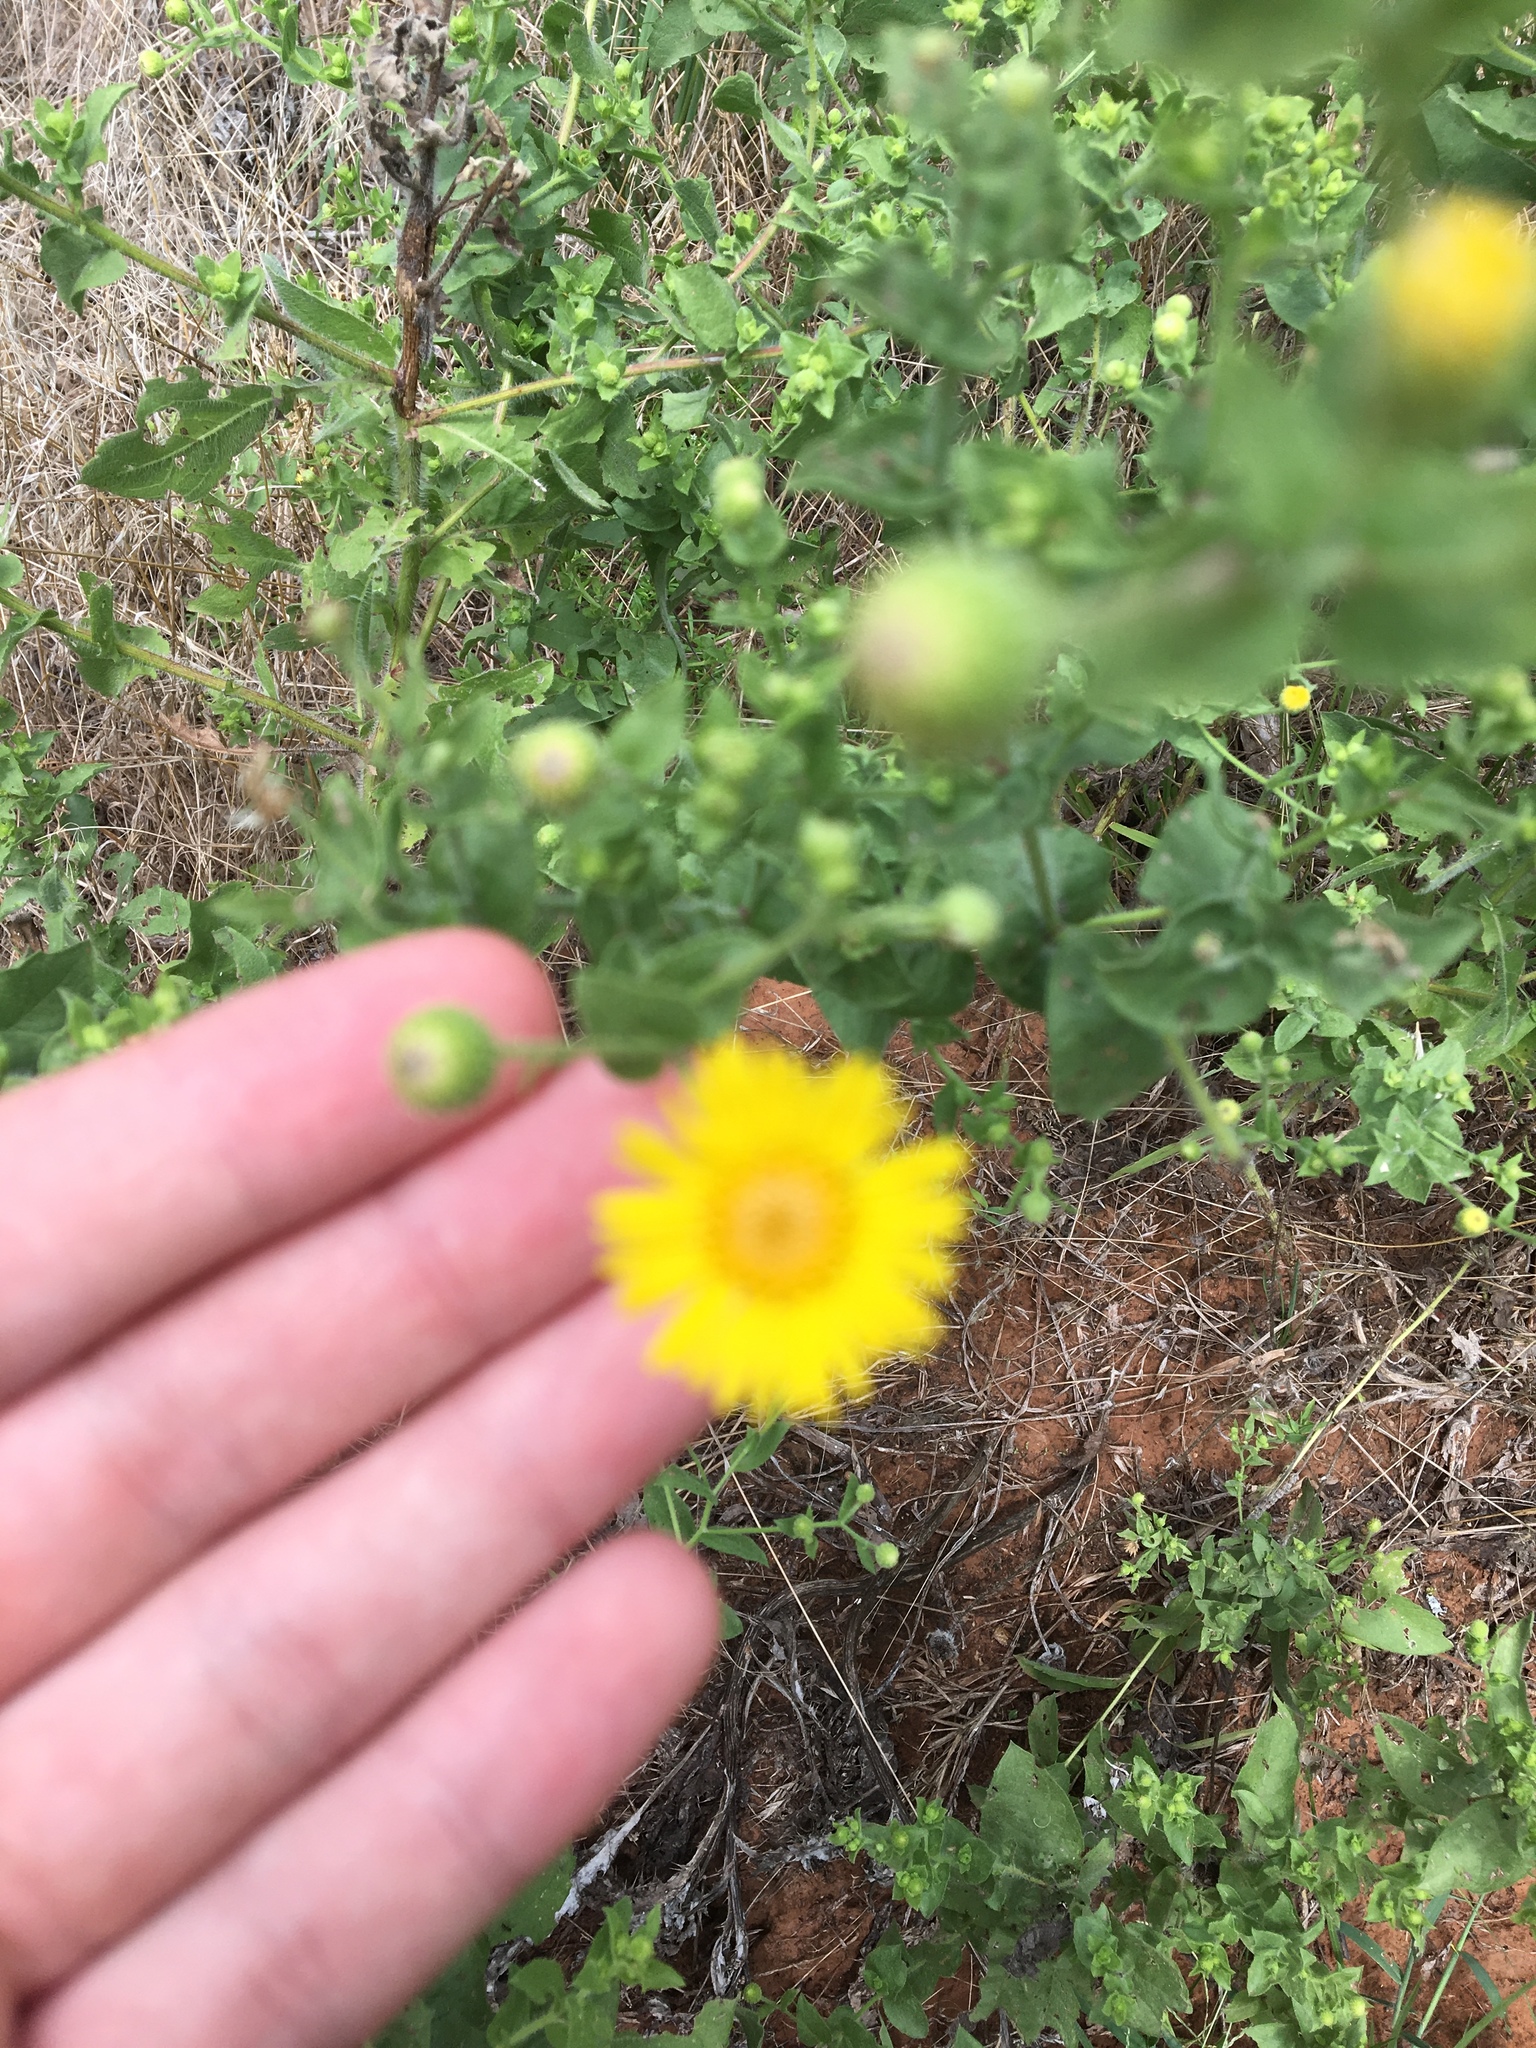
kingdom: Plantae
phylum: Tracheophyta
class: Magnoliopsida
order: Asterales
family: Asteraceae
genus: Heterotheca
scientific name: Heterotheca subaxillaris
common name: Camphorweed
